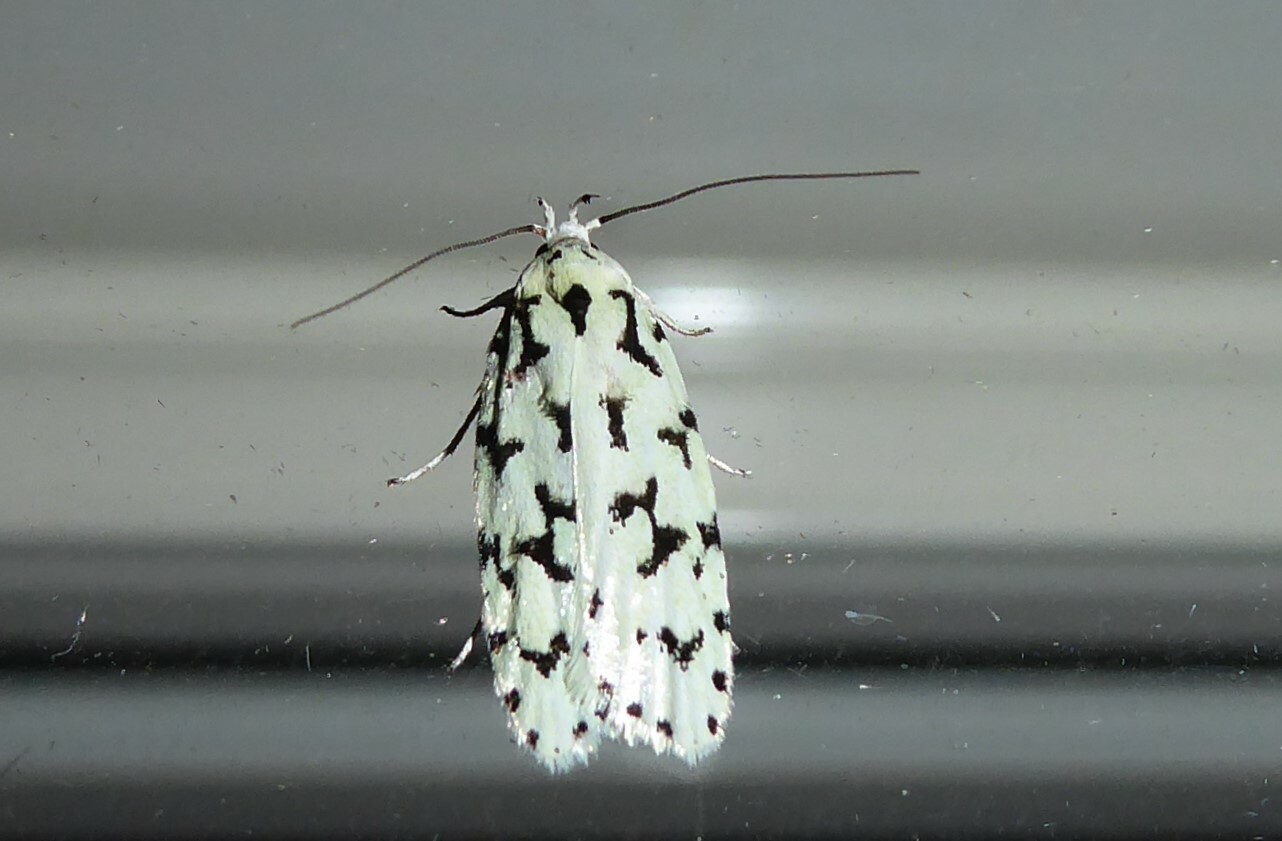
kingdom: Animalia
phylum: Arthropoda
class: Insecta
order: Lepidoptera
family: Oecophoridae
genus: Izatha
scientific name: Izatha huttoni
